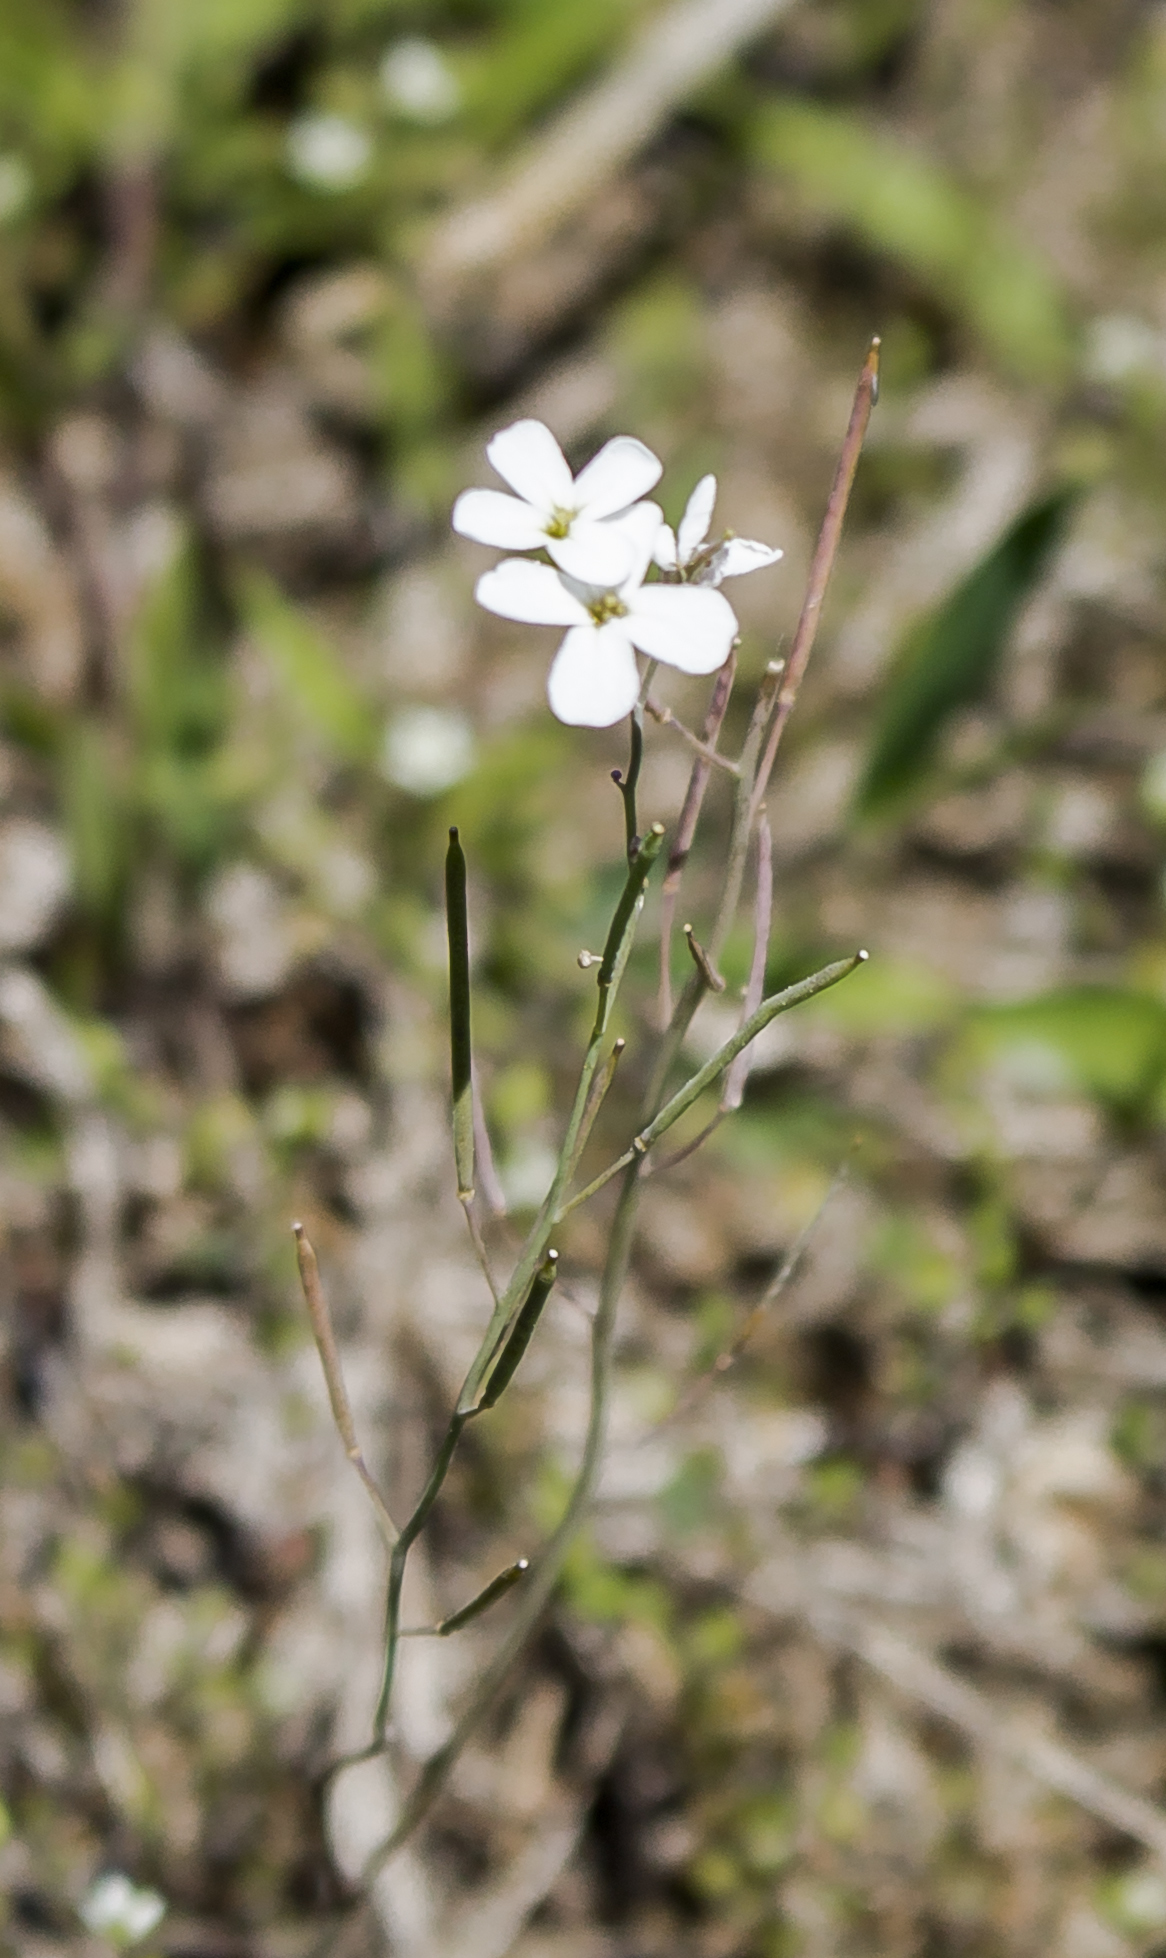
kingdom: Plantae
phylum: Tracheophyta
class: Magnoliopsida
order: Brassicales
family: Brassicaceae
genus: Arabidopsis
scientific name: Arabidopsis lyrata
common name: Lyrate rockcress
